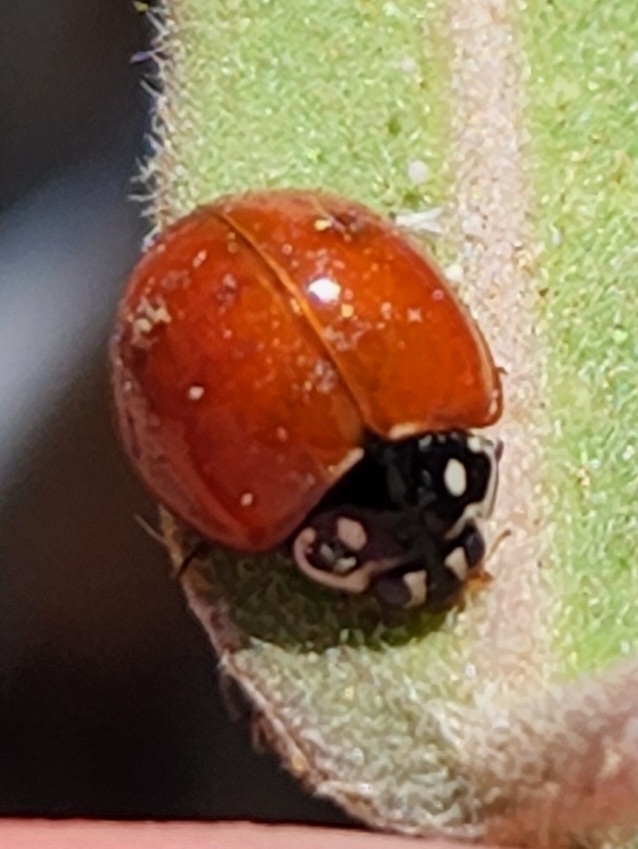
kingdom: Animalia
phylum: Arthropoda
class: Insecta
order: Coleoptera
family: Coccinellidae
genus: Cycloneda
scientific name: Cycloneda sanguinea
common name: Ladybird beetle
